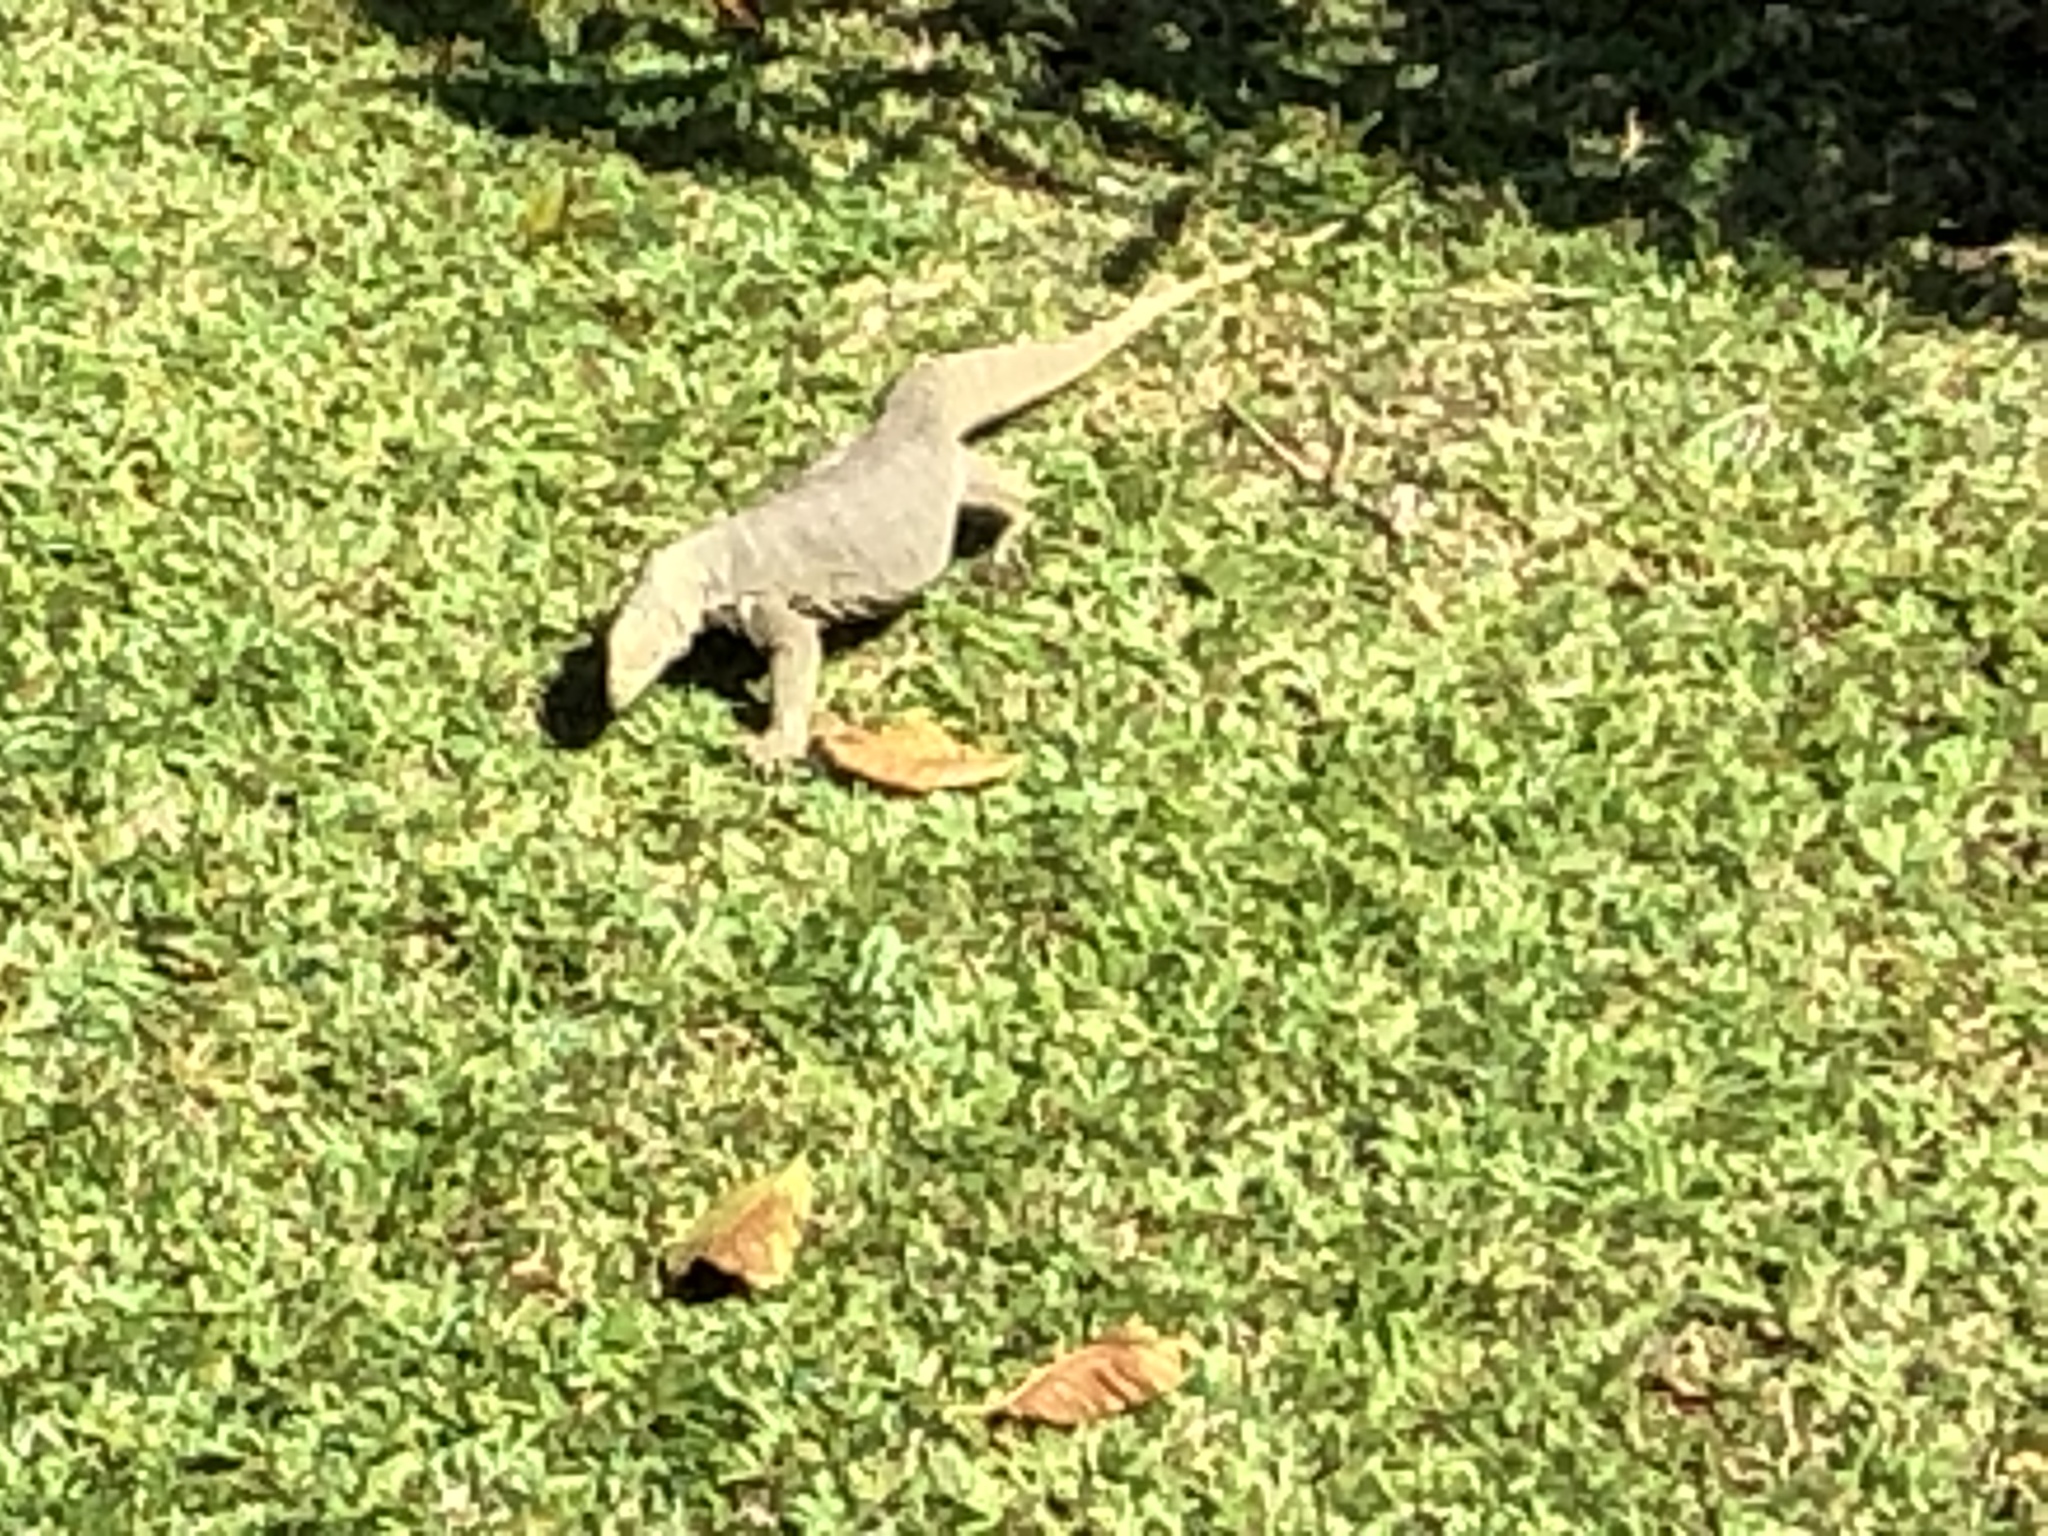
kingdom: Animalia
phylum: Chordata
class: Squamata
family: Varanidae
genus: Varanus
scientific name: Varanus nebulosus
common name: Clouded monitor
